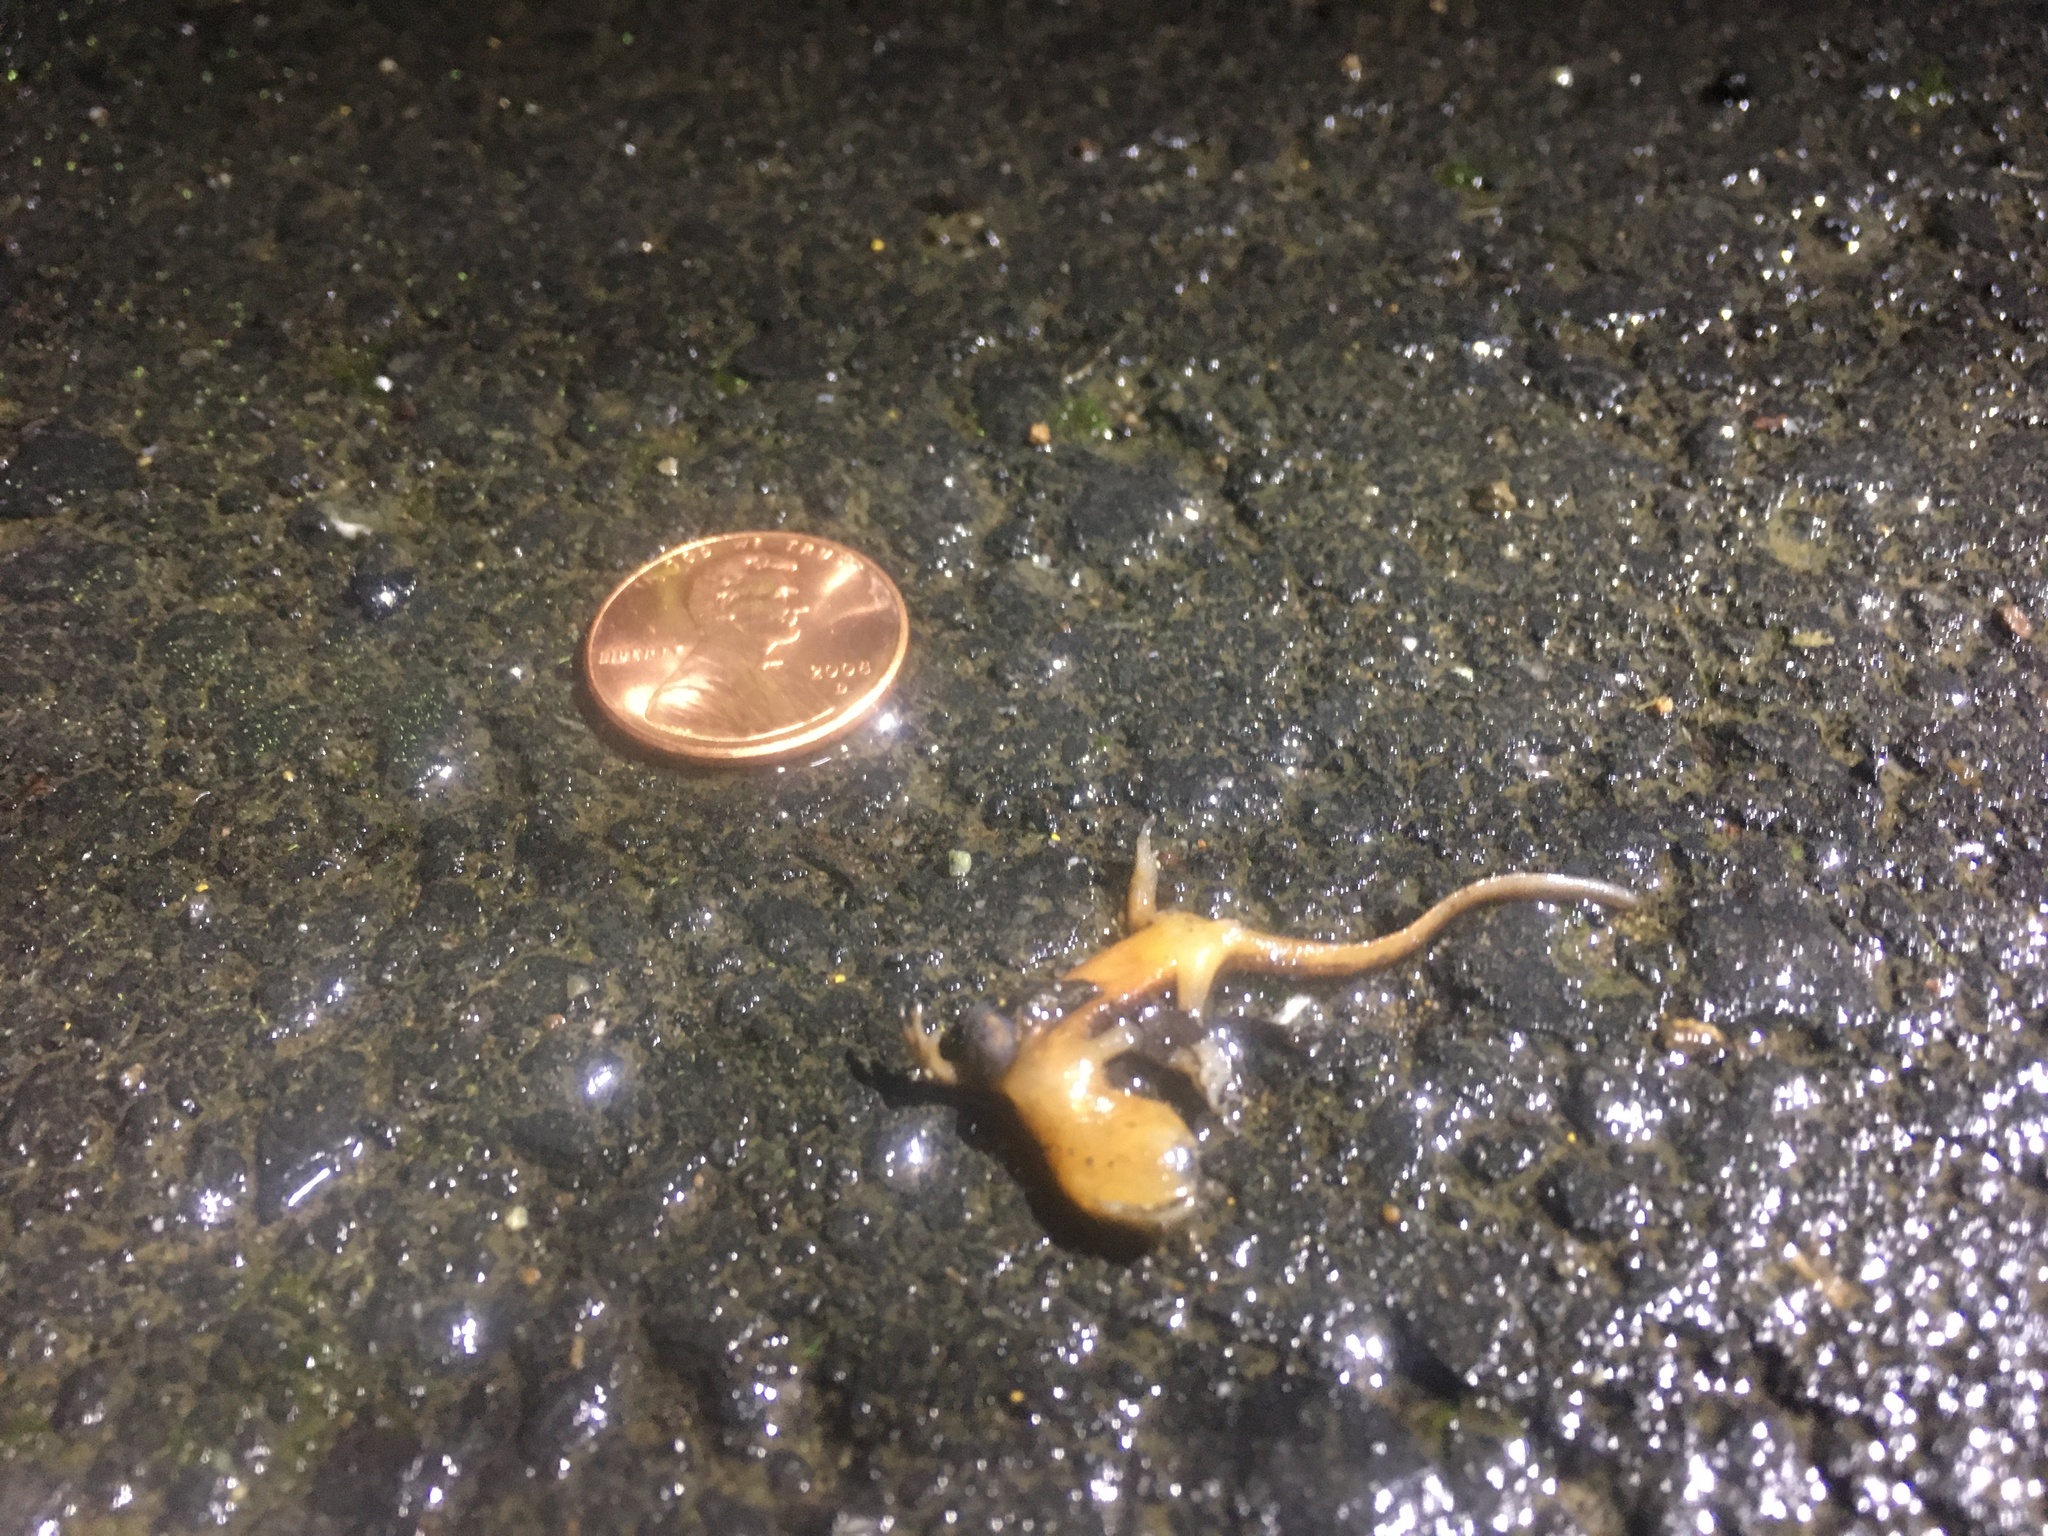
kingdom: Animalia
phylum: Chordata
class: Amphibia
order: Caudata
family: Salamandridae
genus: Taricha
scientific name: Taricha
